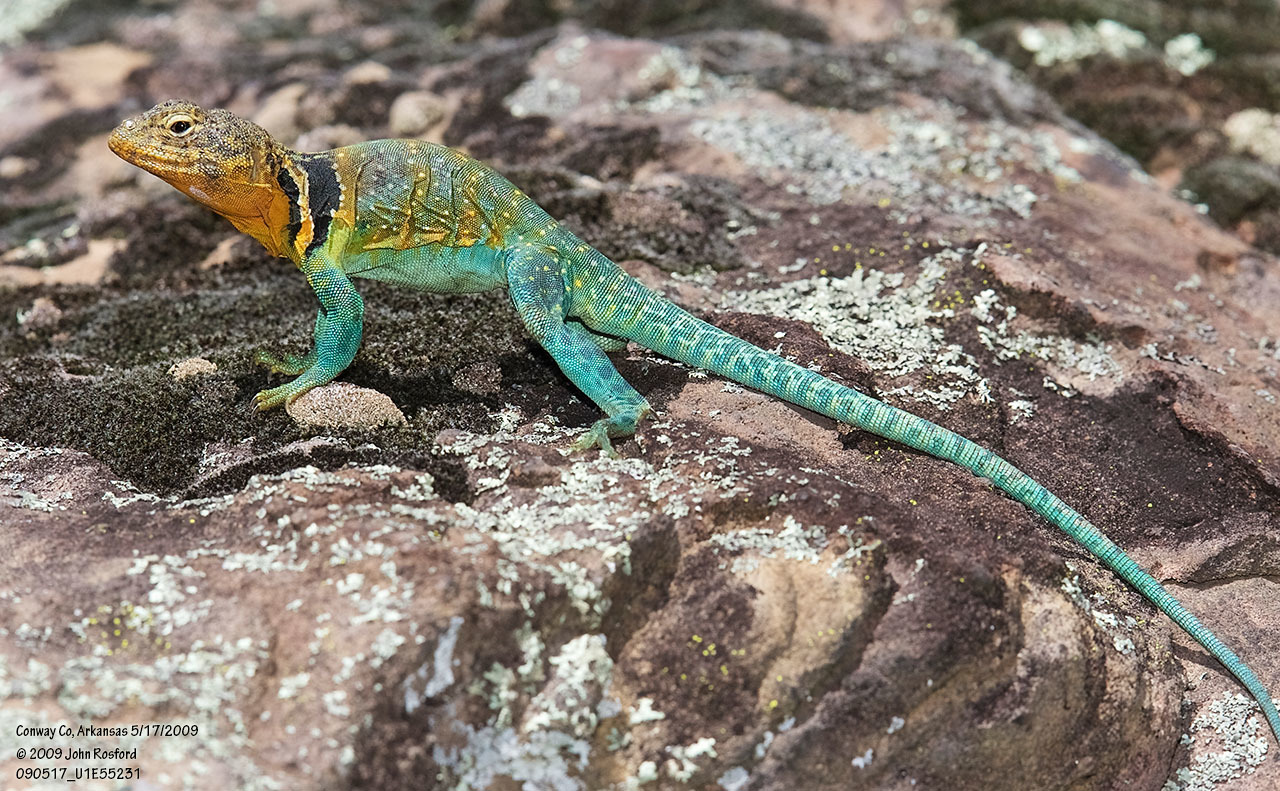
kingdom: Animalia
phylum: Chordata
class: Squamata
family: Crotaphytidae
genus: Crotaphytus
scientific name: Crotaphytus collaris
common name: Collared lizard
